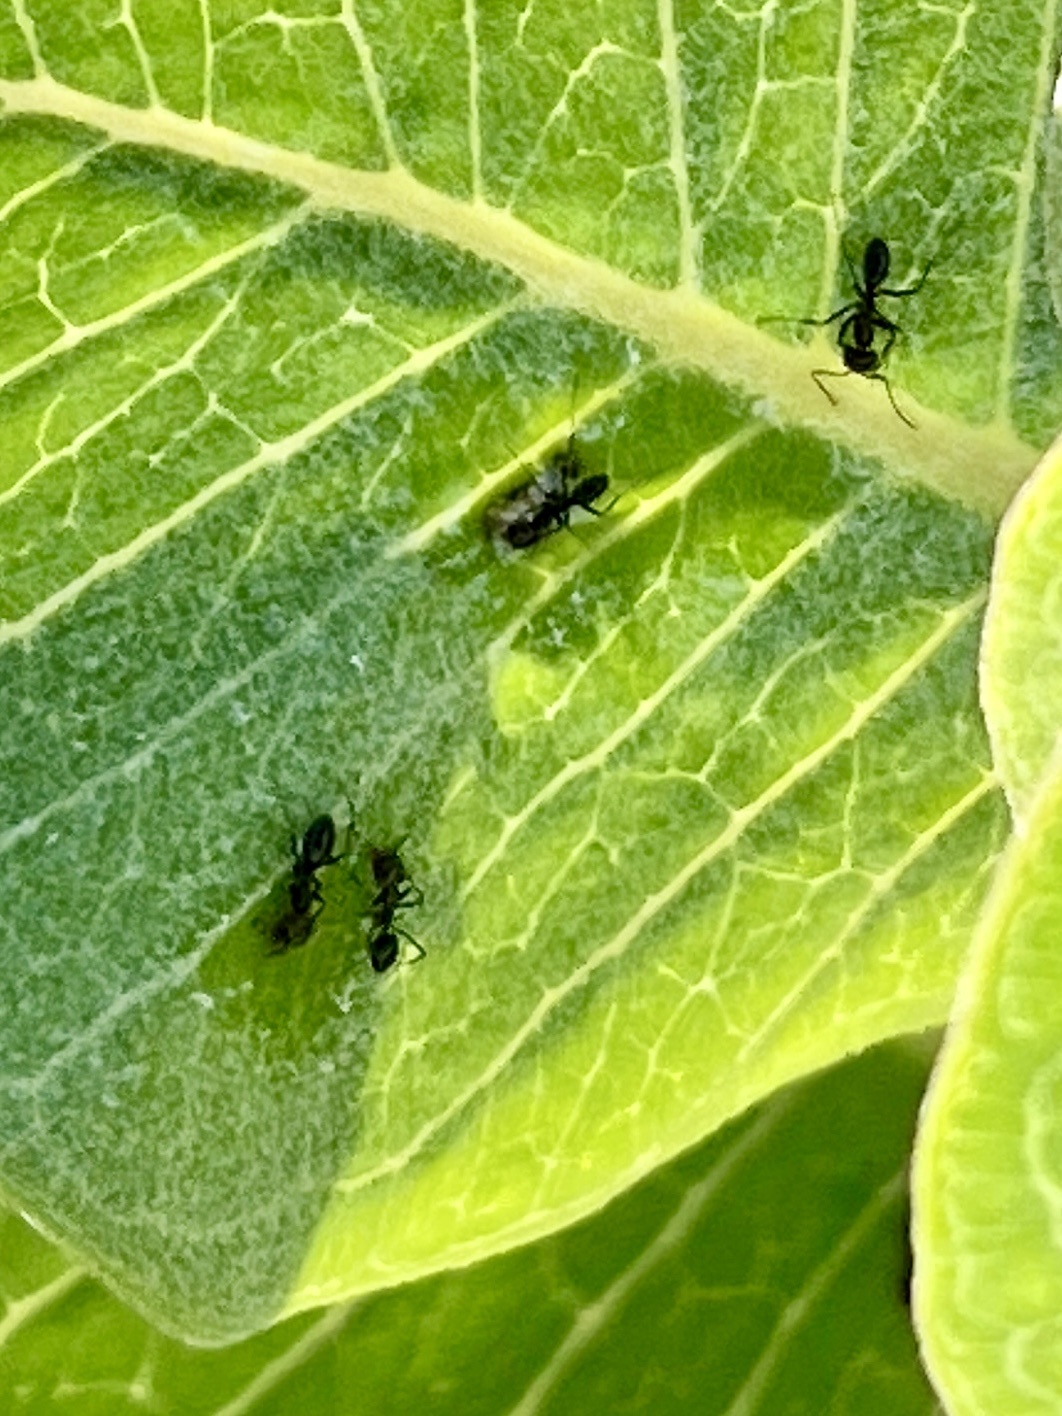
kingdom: Animalia
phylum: Arthropoda
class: Insecta
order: Hymenoptera
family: Formicidae
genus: Dorymyrmex
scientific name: Dorymyrmex
